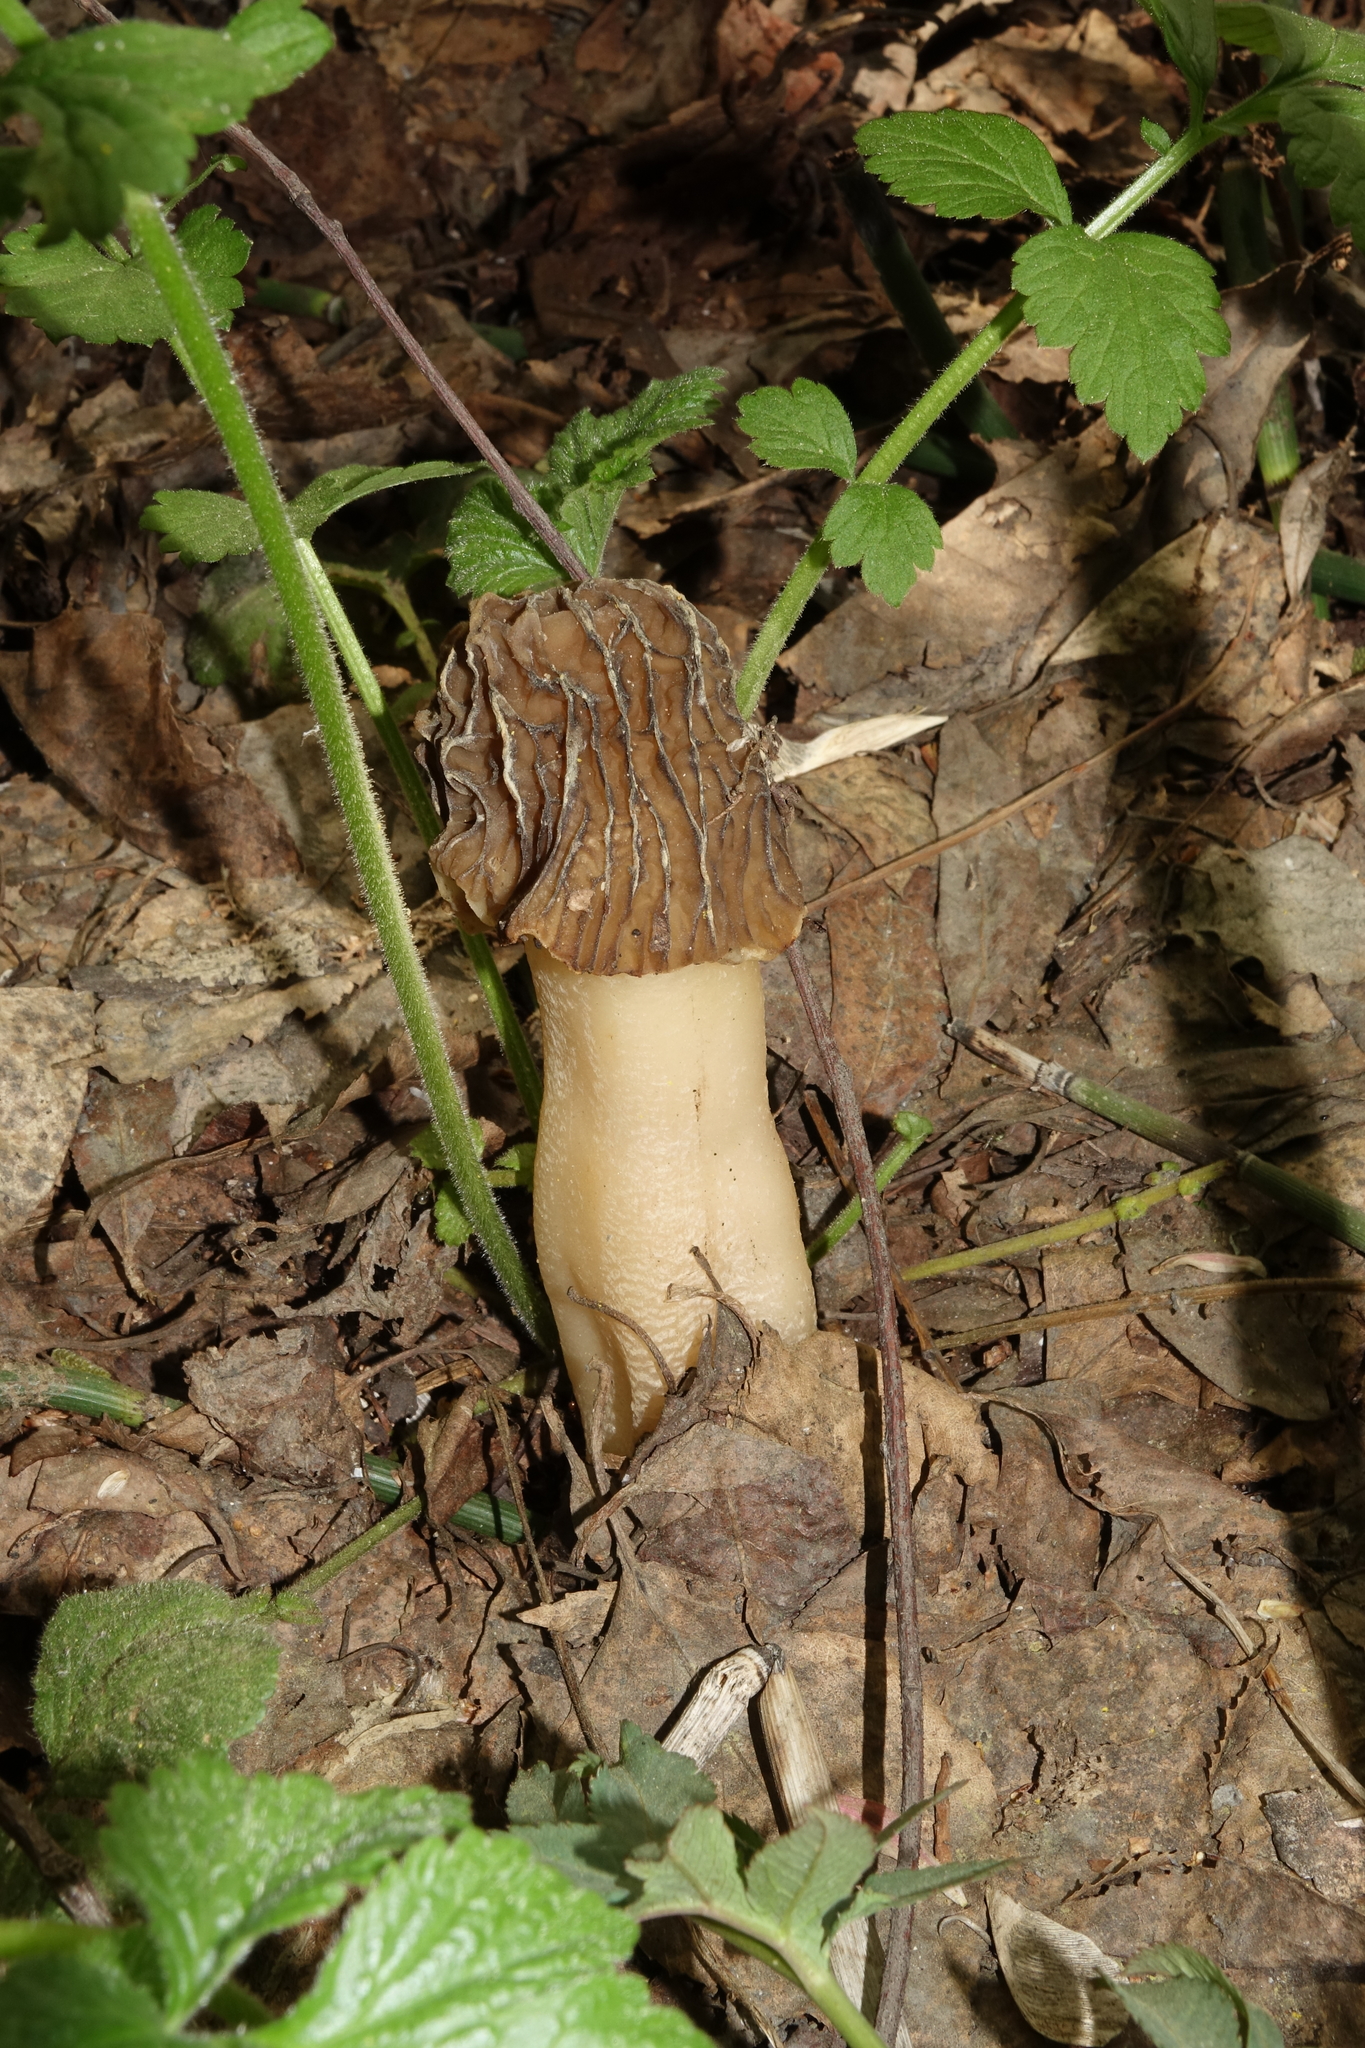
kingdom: Plantae
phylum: Tracheophyta
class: Magnoliopsida
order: Rosales
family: Urticaceae
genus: Urtica
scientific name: Urtica dioica
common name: Common nettle
